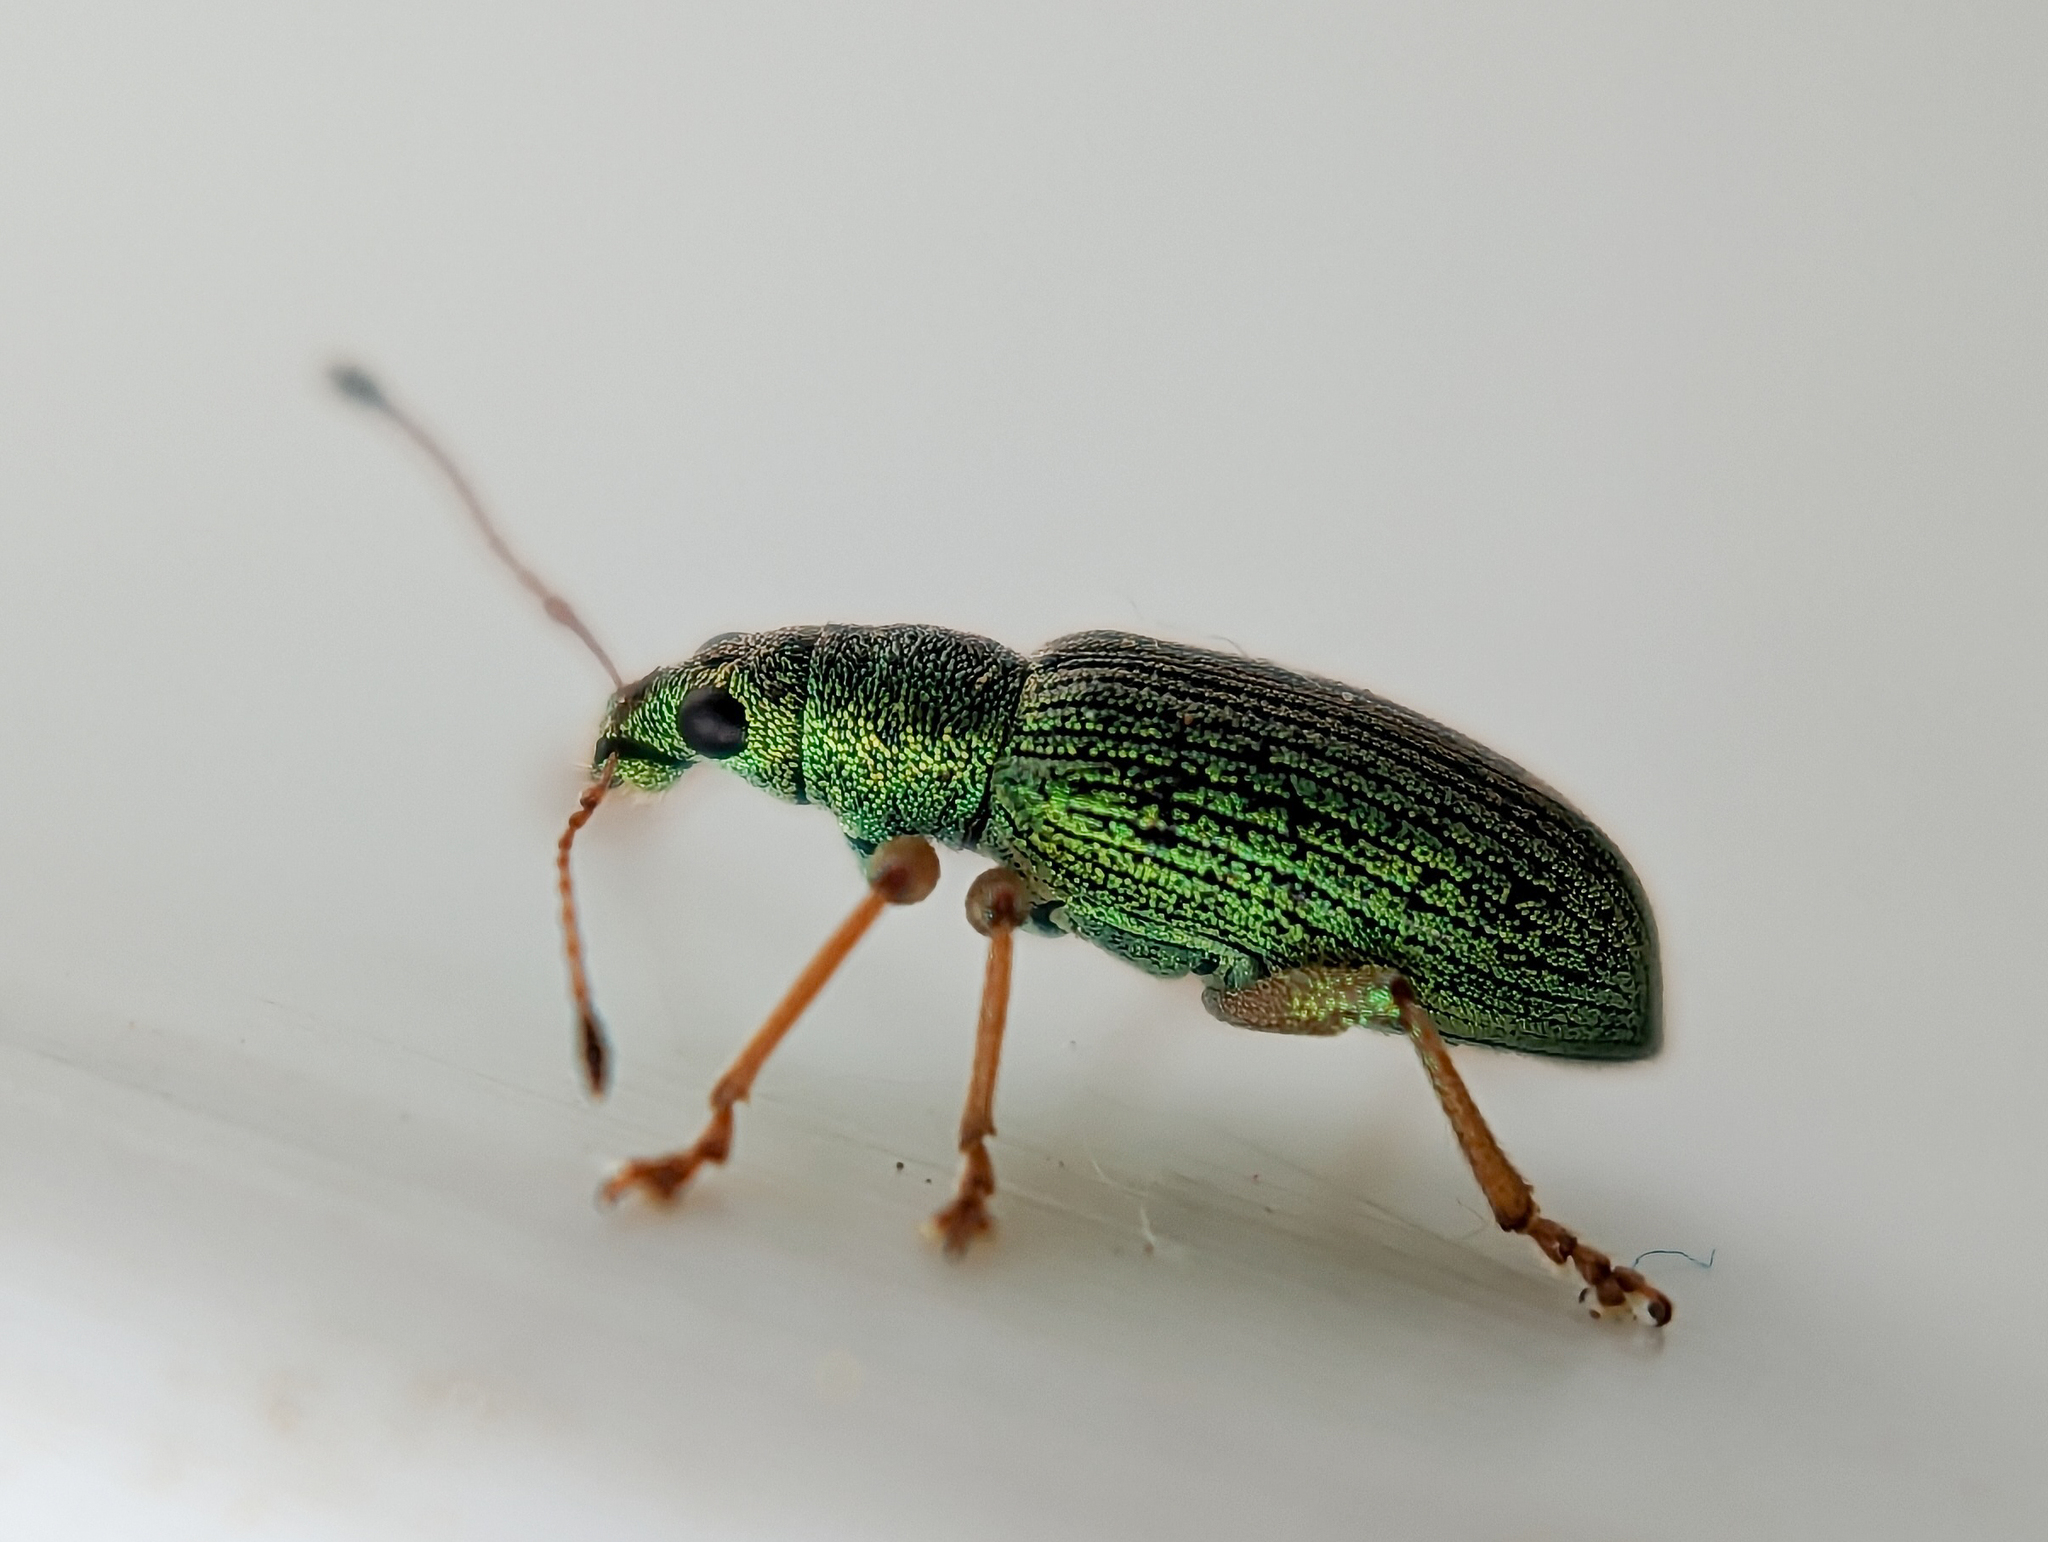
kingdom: Animalia
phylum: Arthropoda
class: Insecta
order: Coleoptera
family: Curculionidae
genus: Polydrusus
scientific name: Polydrusus formosus
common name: Weevil
